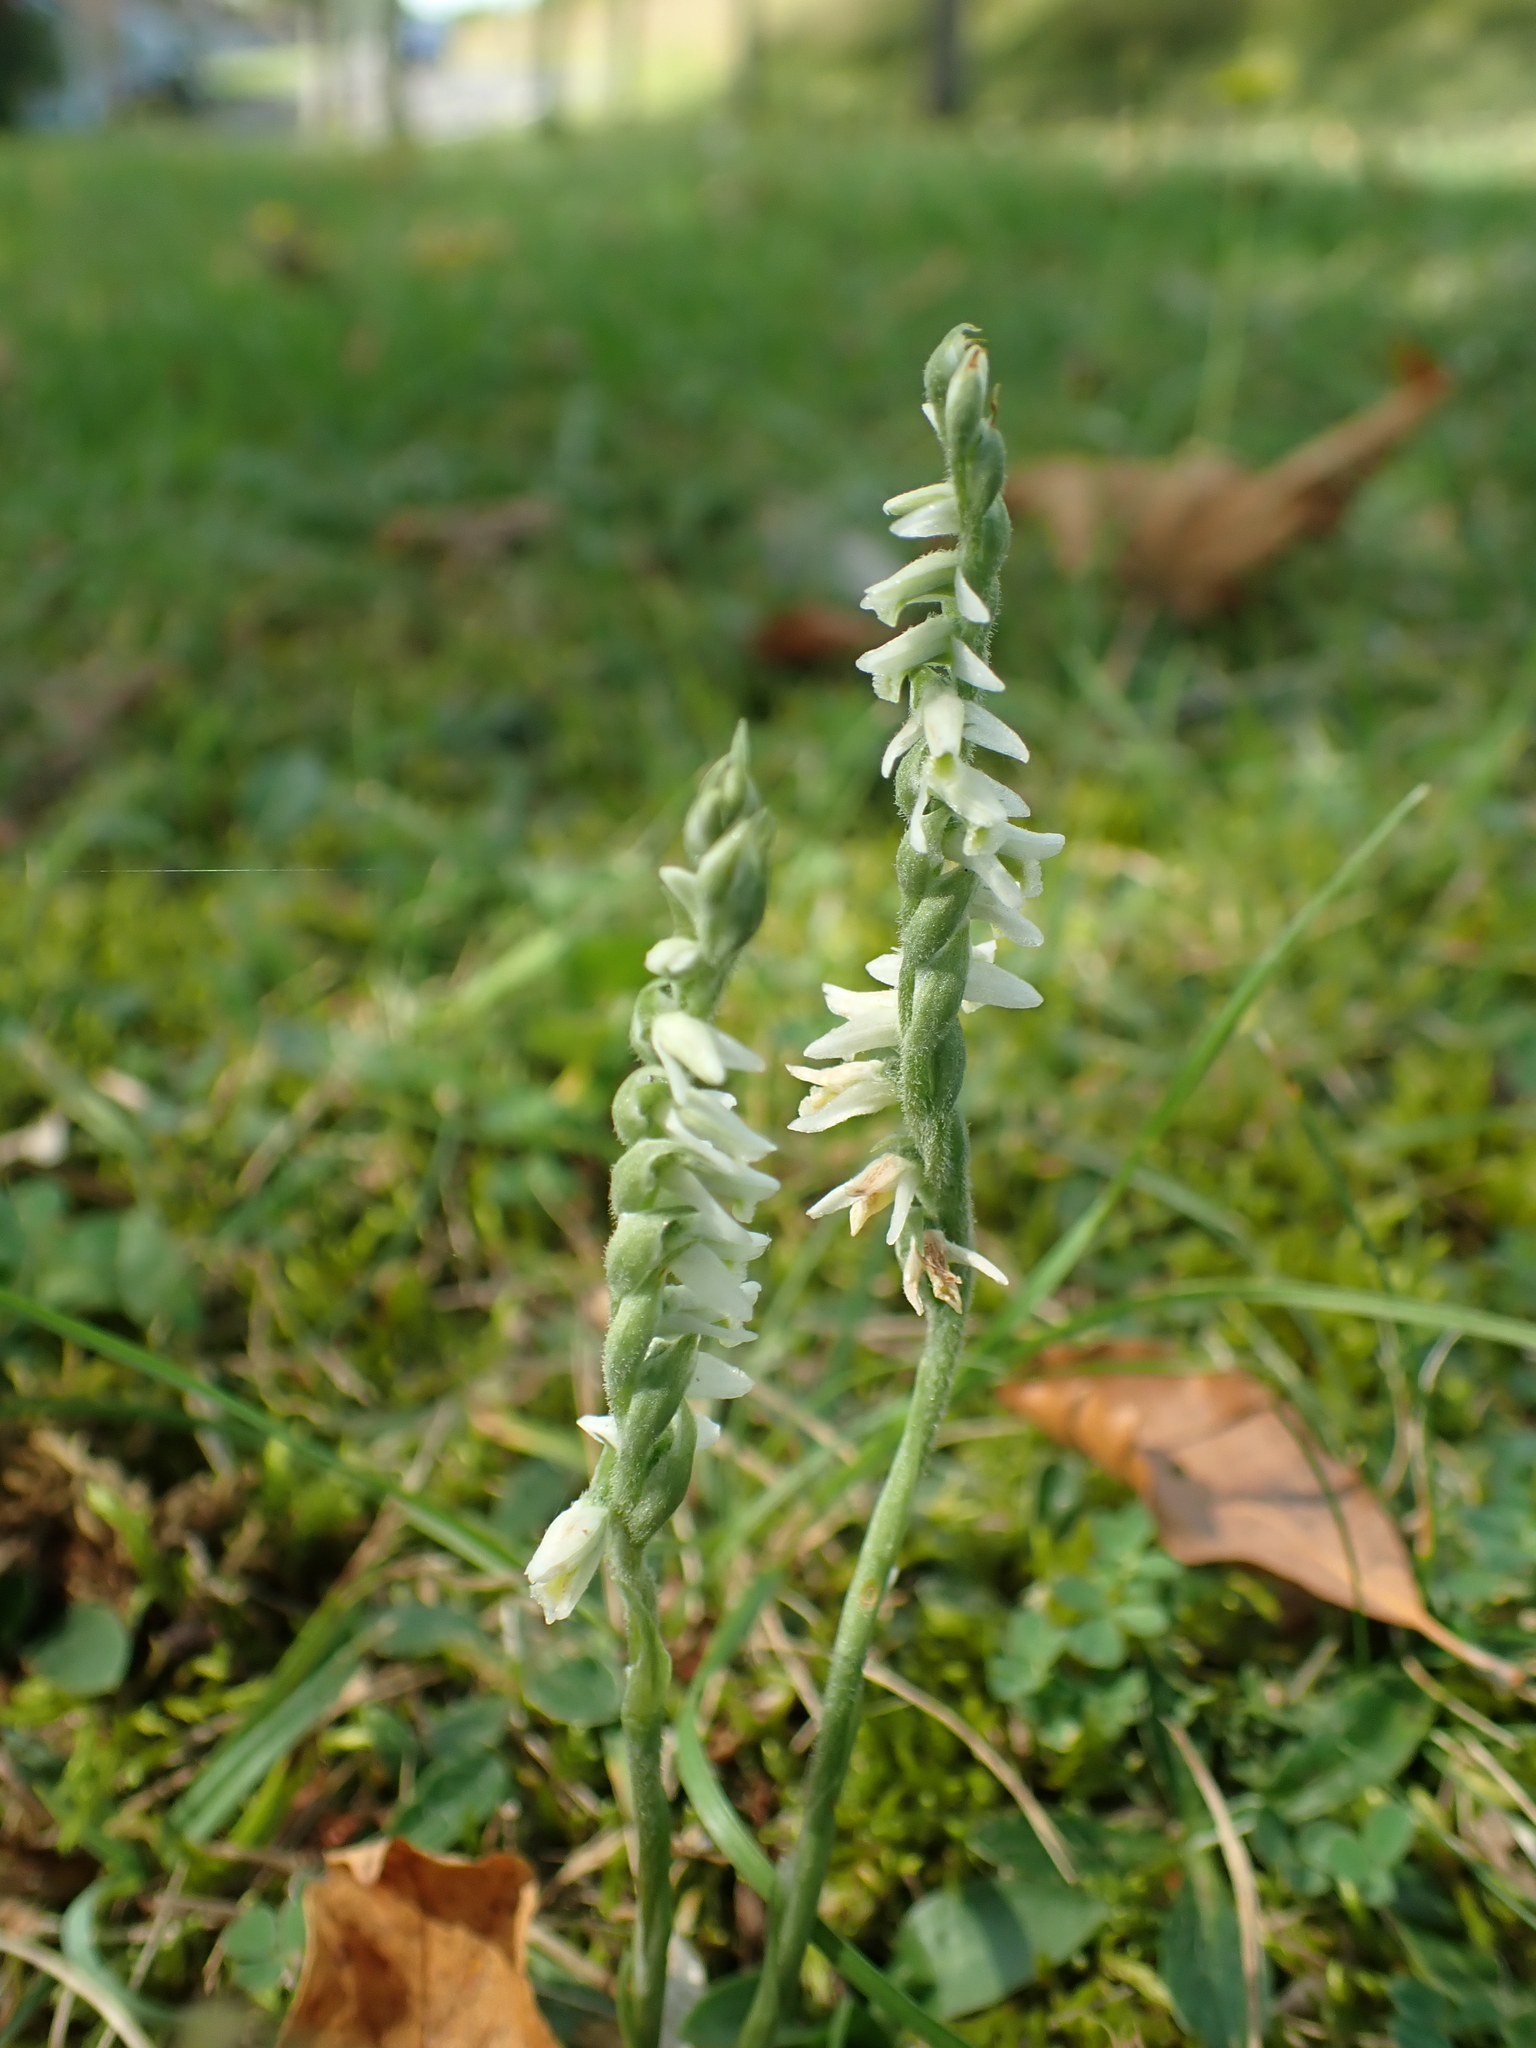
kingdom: Plantae
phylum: Tracheophyta
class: Liliopsida
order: Asparagales
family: Orchidaceae
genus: Spiranthes
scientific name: Spiranthes spiralis
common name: Autumn lady's-tresses
